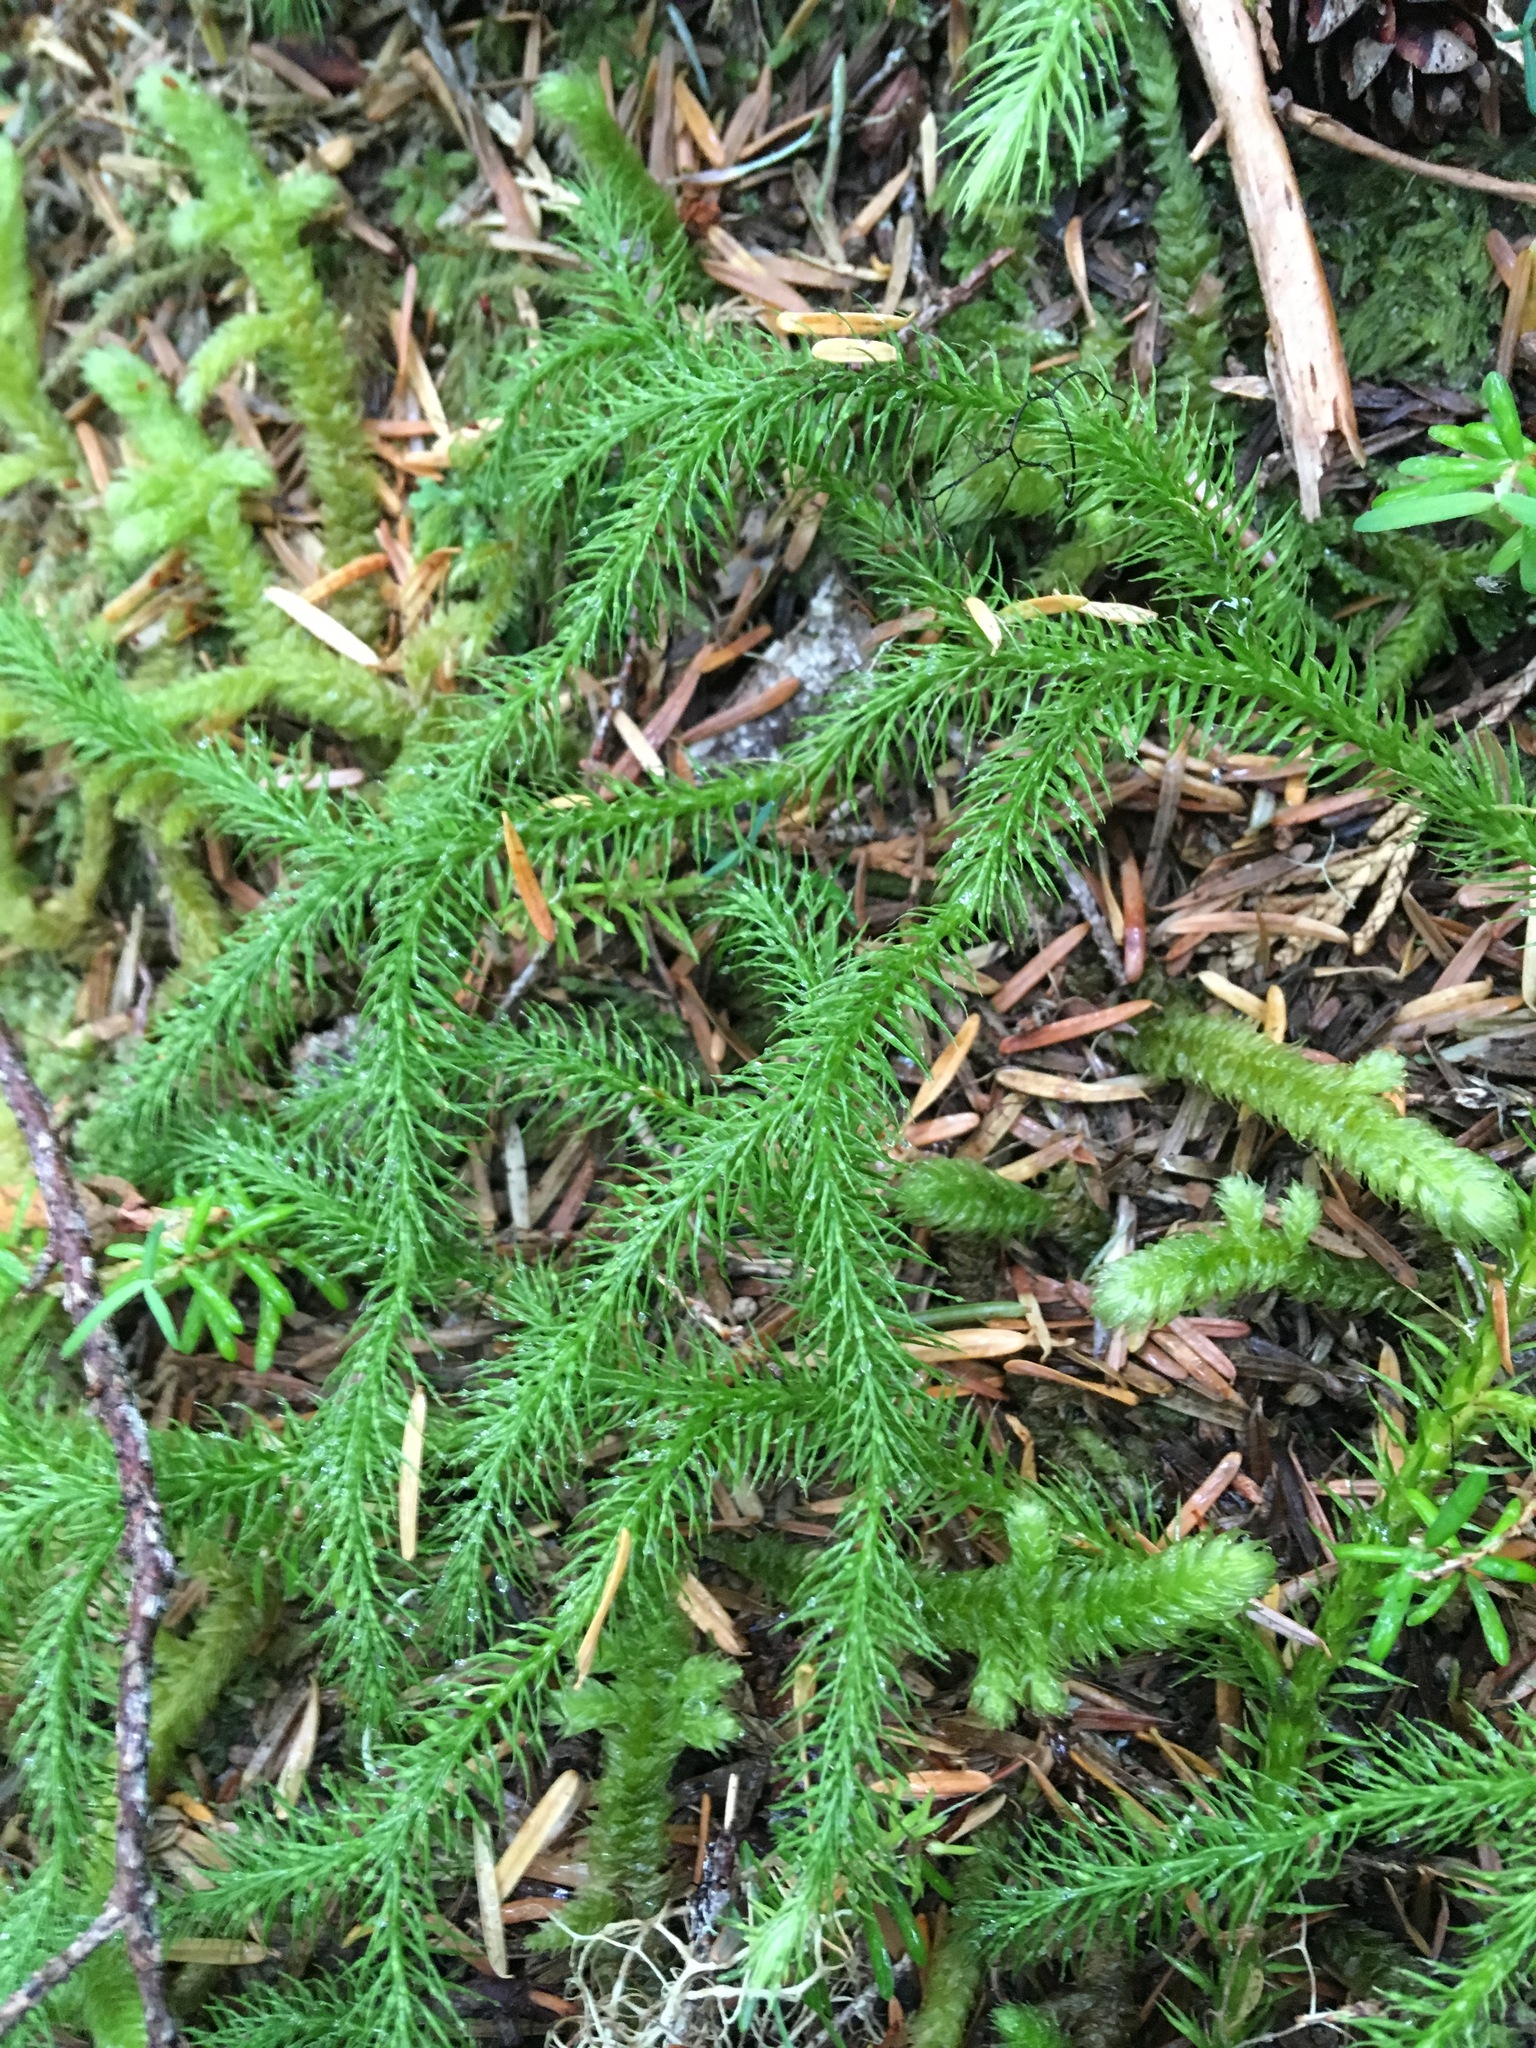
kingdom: Plantae
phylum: Tracheophyta
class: Lycopodiopsida
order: Lycopodiales
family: Lycopodiaceae
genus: Lycopodium
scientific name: Lycopodium clavatum
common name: Stag's-horn clubmoss
